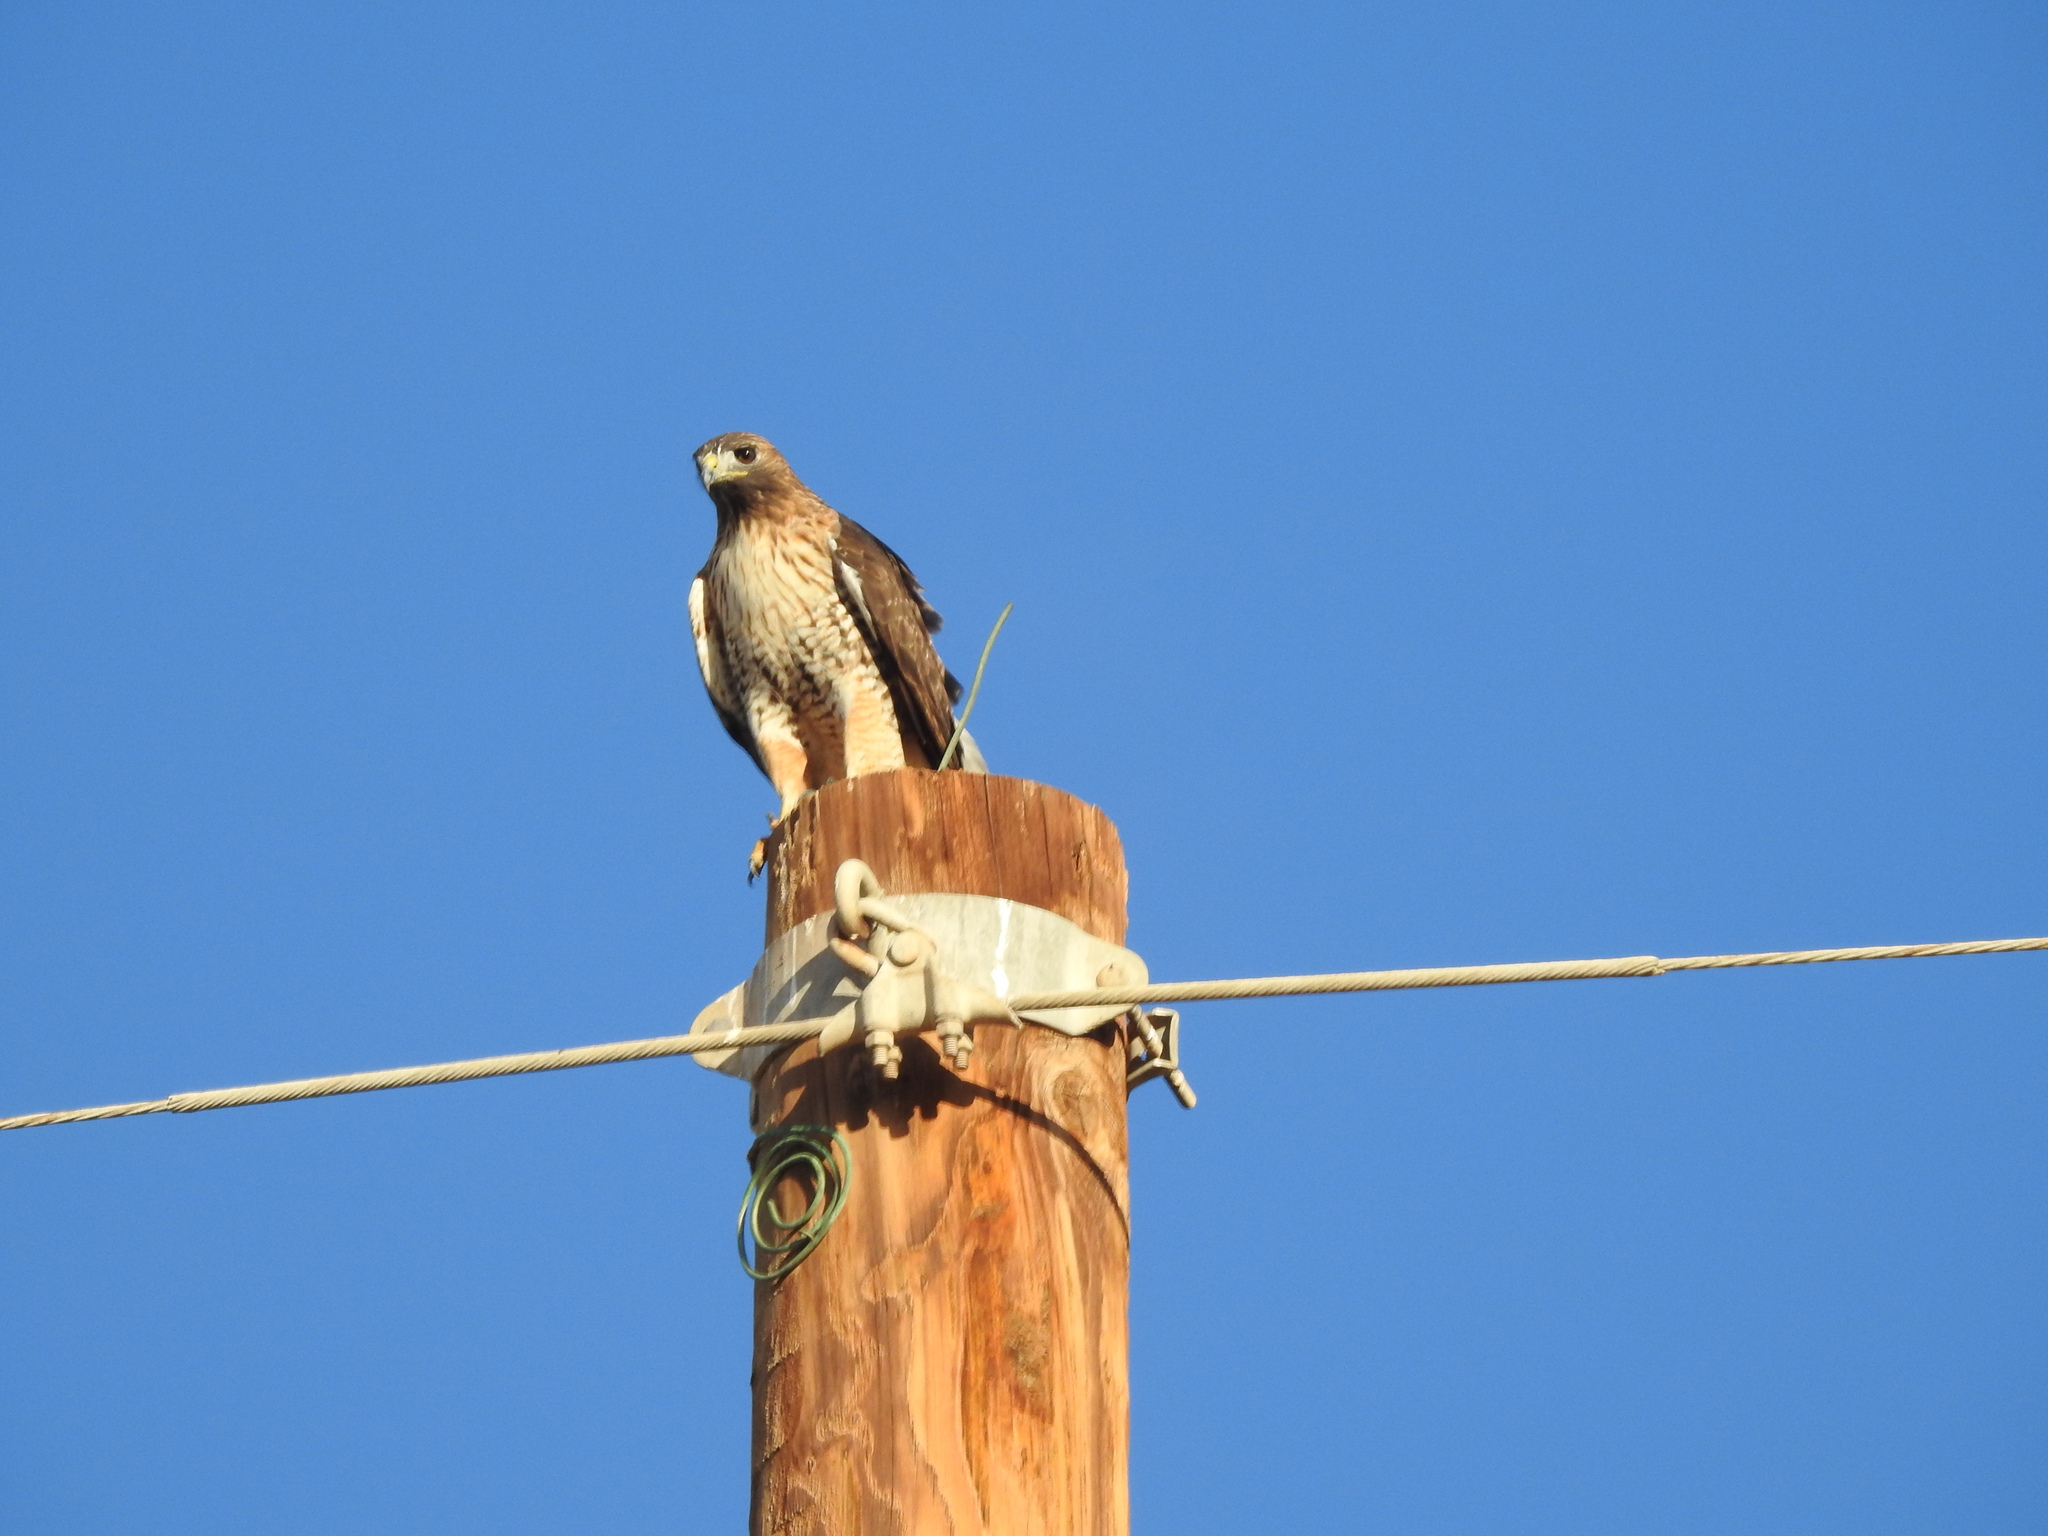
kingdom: Animalia
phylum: Chordata
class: Aves
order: Accipitriformes
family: Accipitridae
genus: Buteo
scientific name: Buteo jamaicensis
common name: Red-tailed hawk
